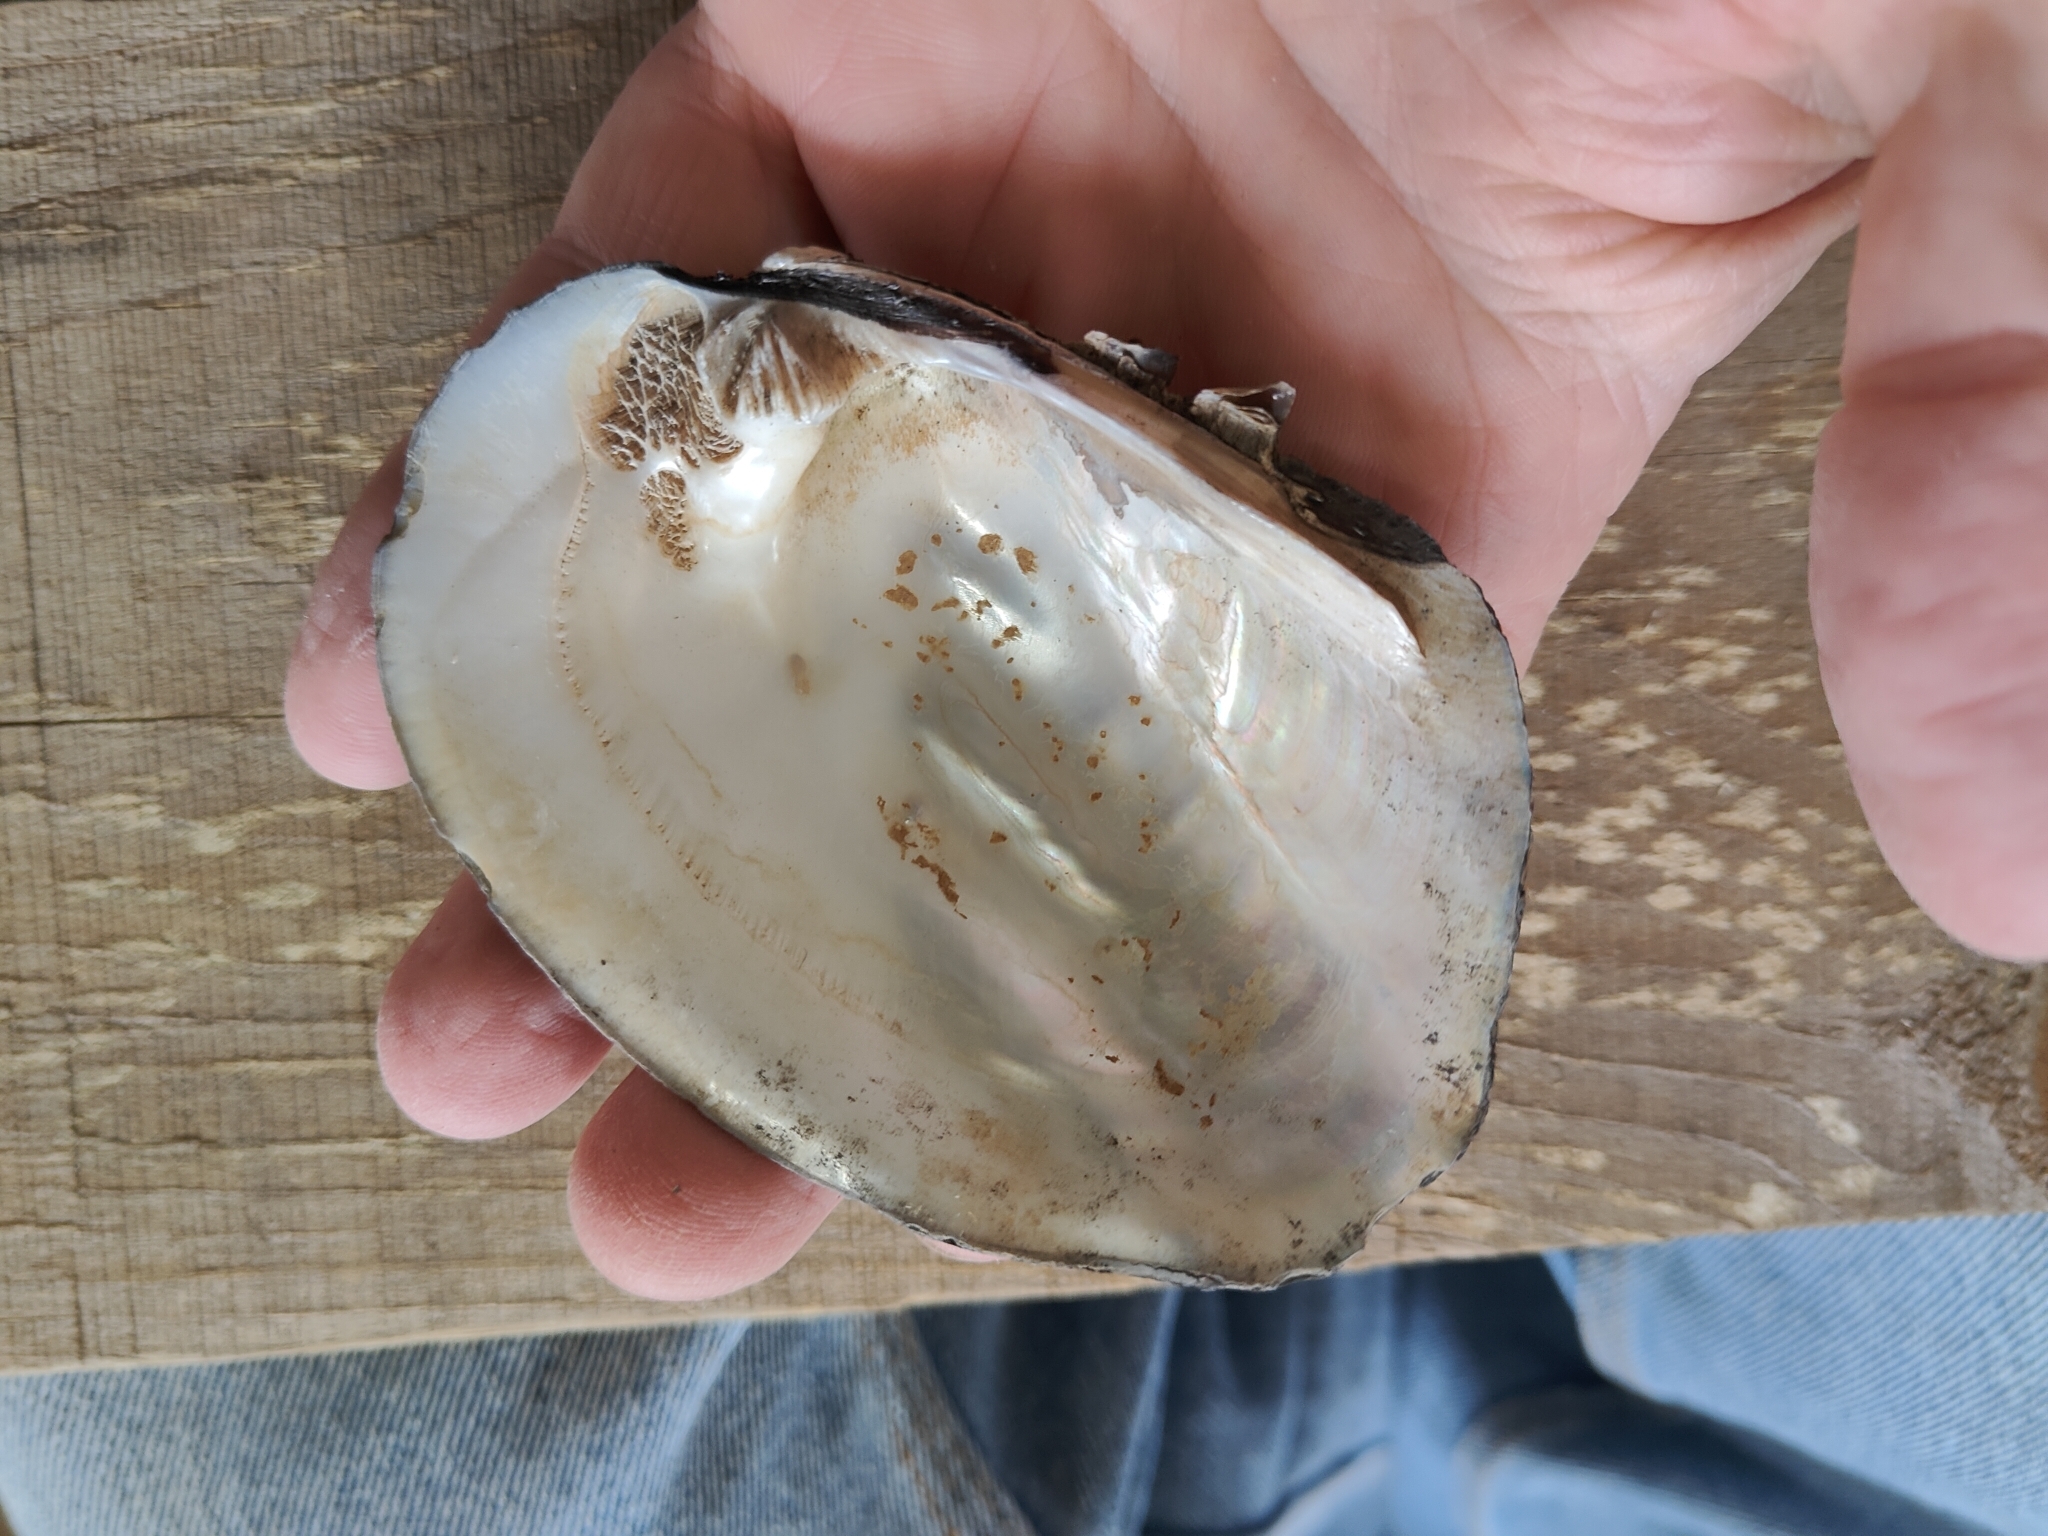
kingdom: Animalia
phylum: Mollusca
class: Bivalvia
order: Unionida
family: Unionidae
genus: Amblema
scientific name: Amblema plicata
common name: Threeridge
